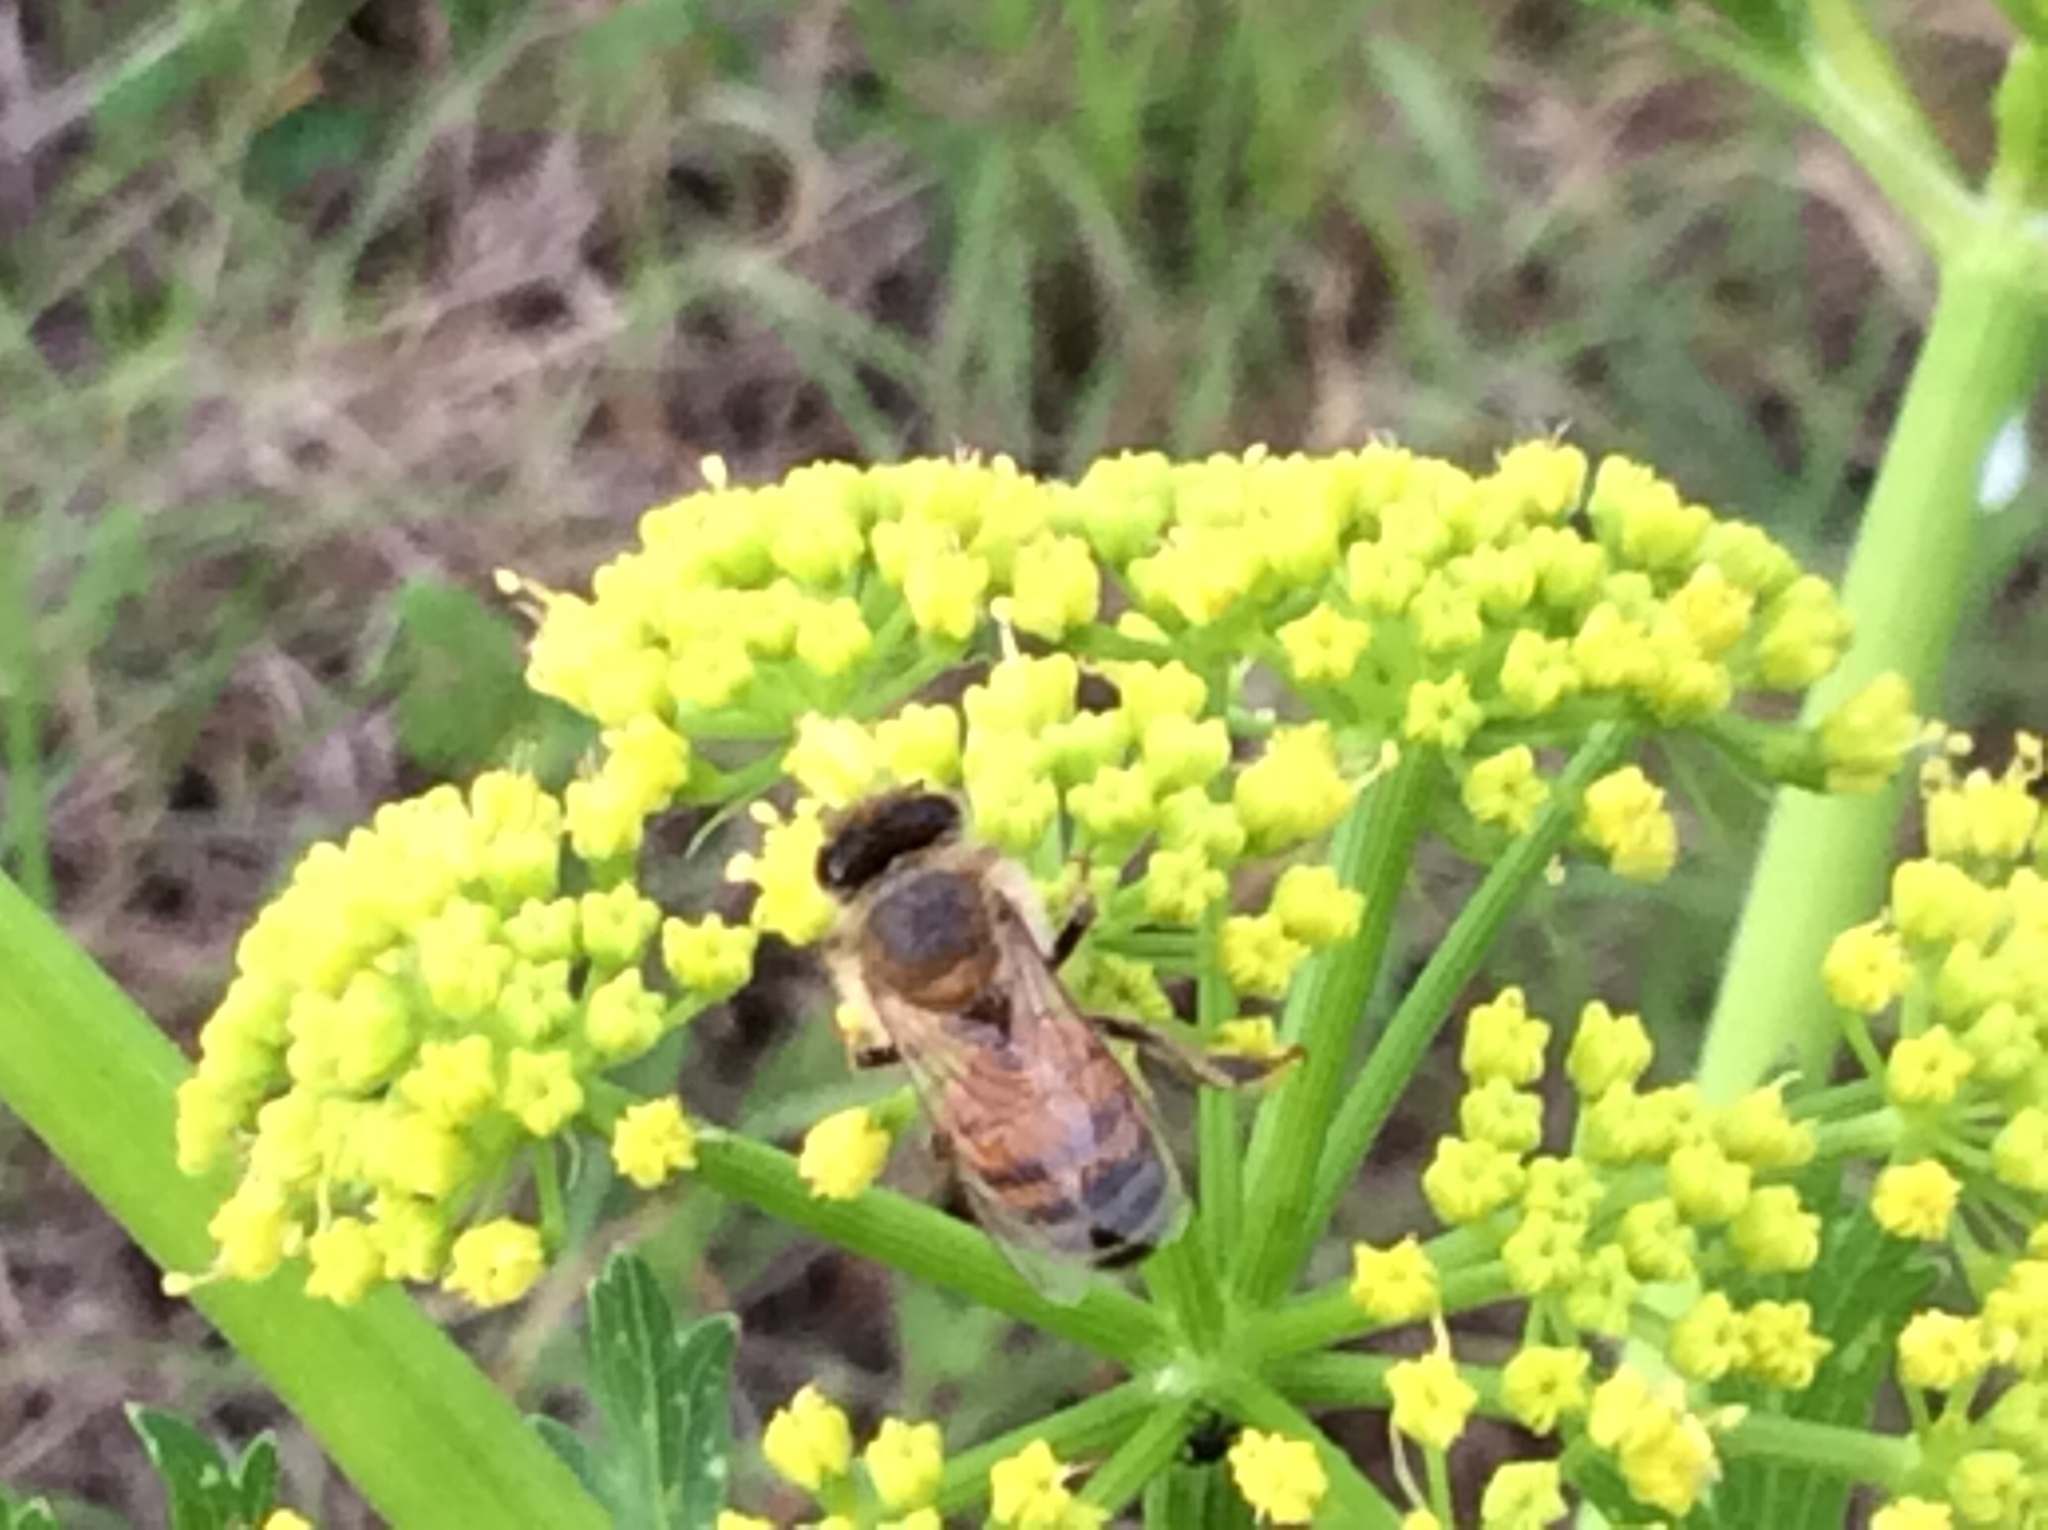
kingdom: Animalia
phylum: Arthropoda
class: Insecta
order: Hymenoptera
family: Apidae
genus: Apis
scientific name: Apis mellifera
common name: Honey bee
